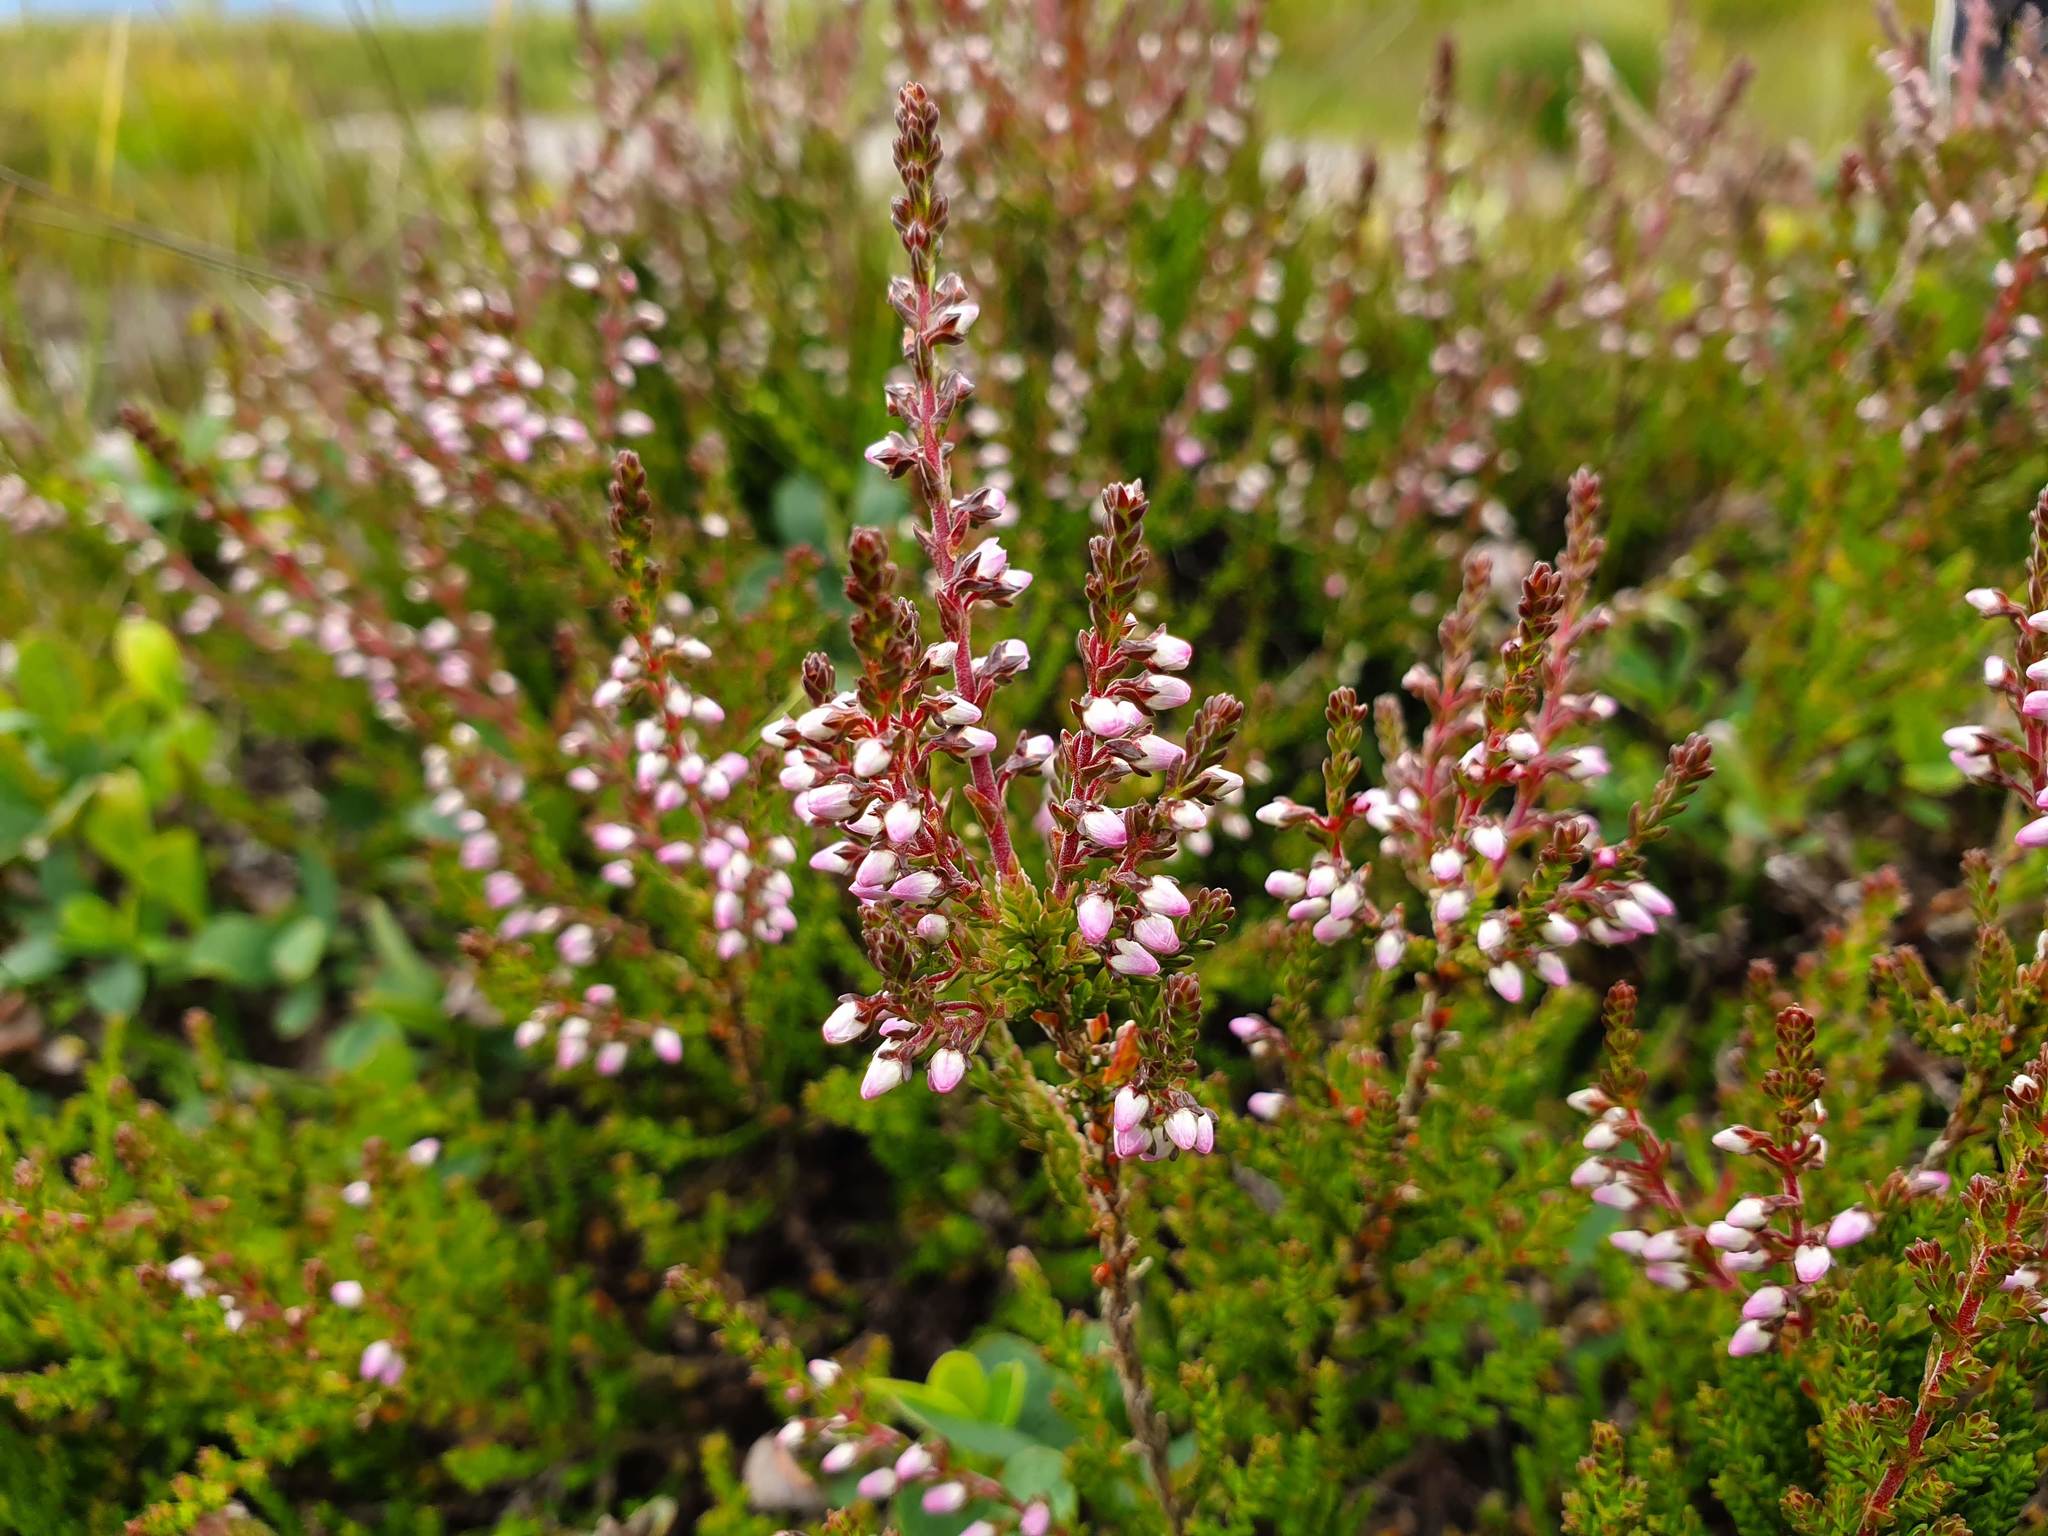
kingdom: Plantae
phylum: Tracheophyta
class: Magnoliopsida
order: Ericales
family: Ericaceae
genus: Calluna
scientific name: Calluna vulgaris
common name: Heather
